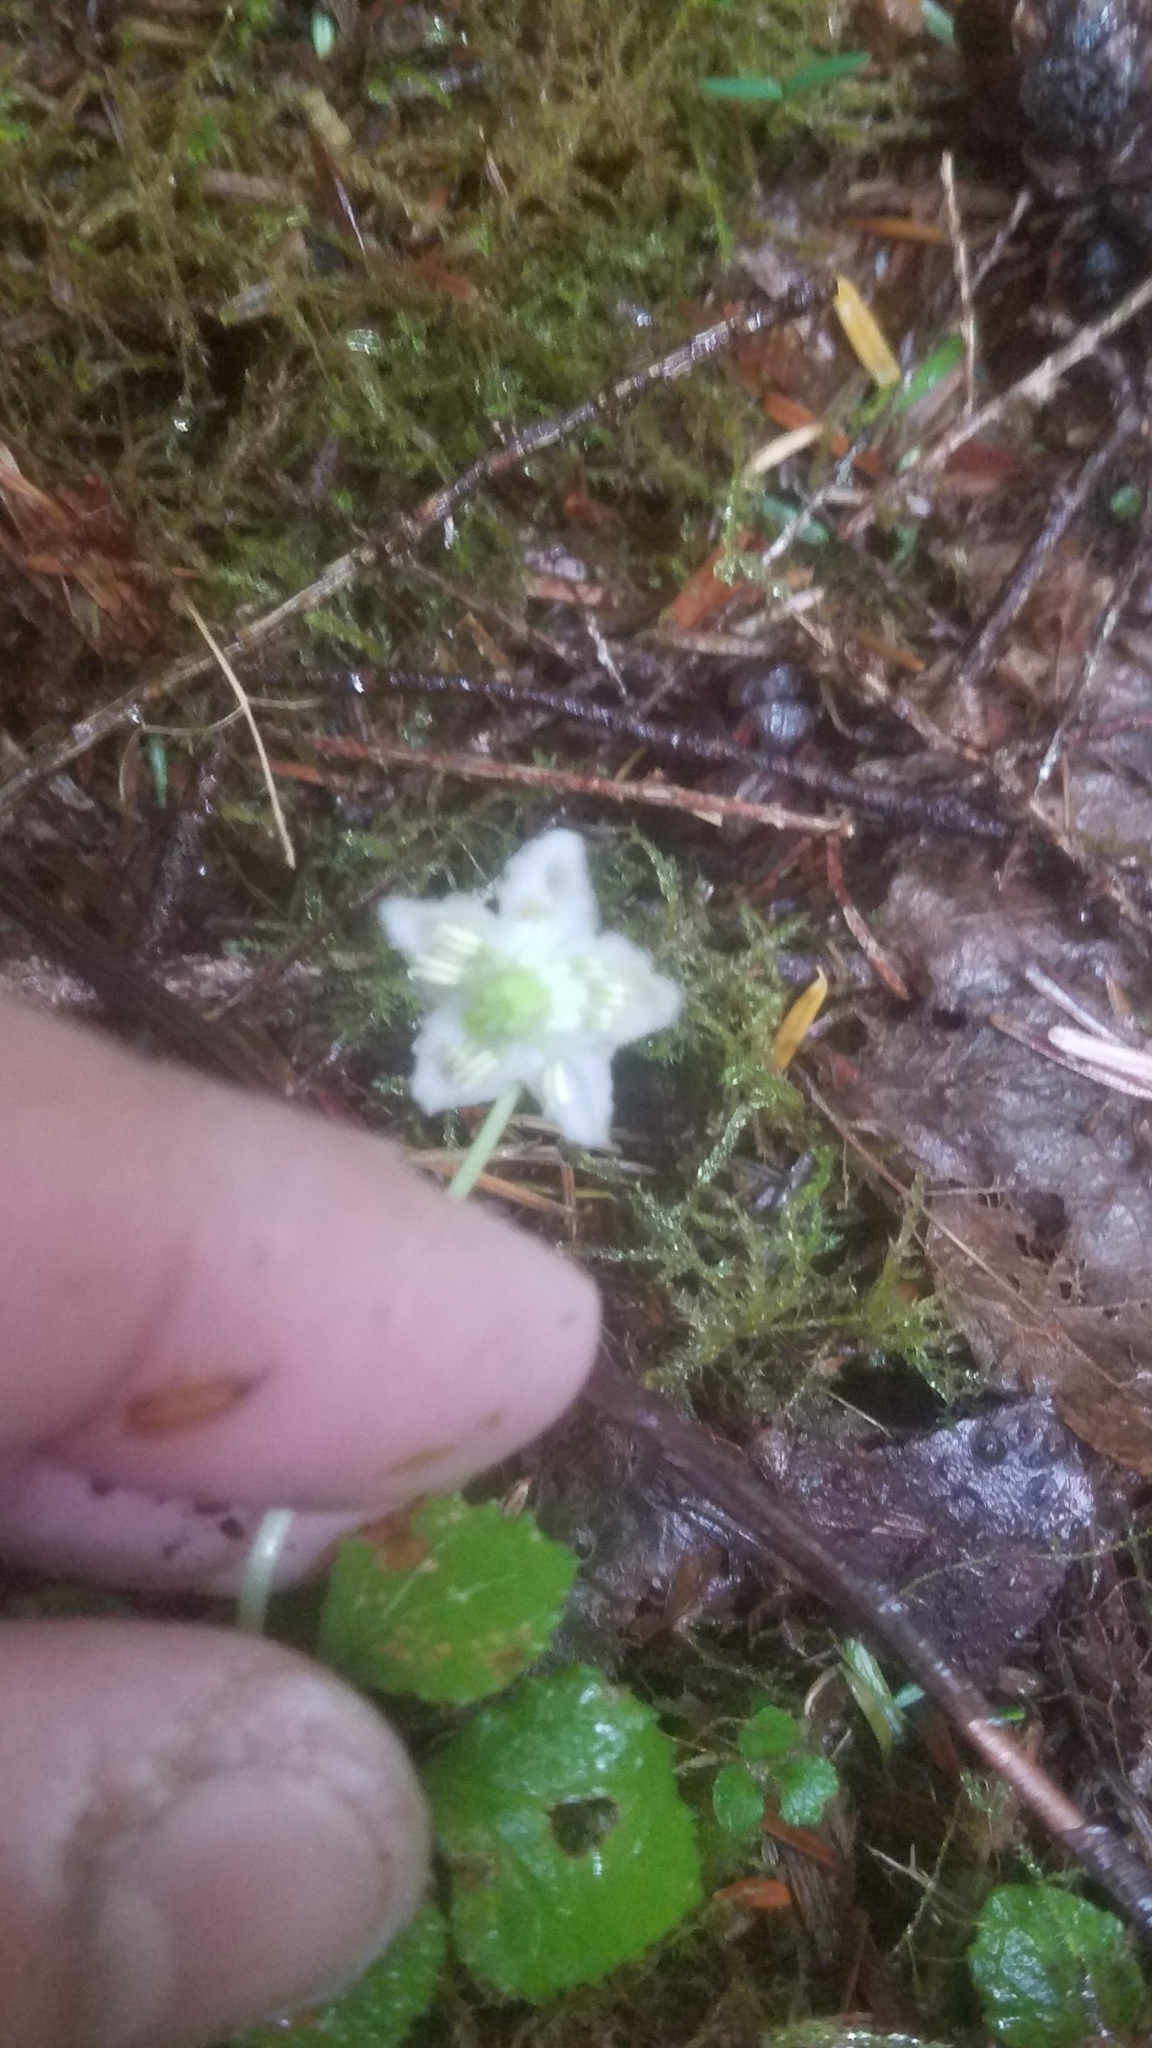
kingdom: Plantae
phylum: Tracheophyta
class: Magnoliopsida
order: Ericales
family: Ericaceae
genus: Moneses
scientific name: Moneses uniflora
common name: One-flowered wintergreen
